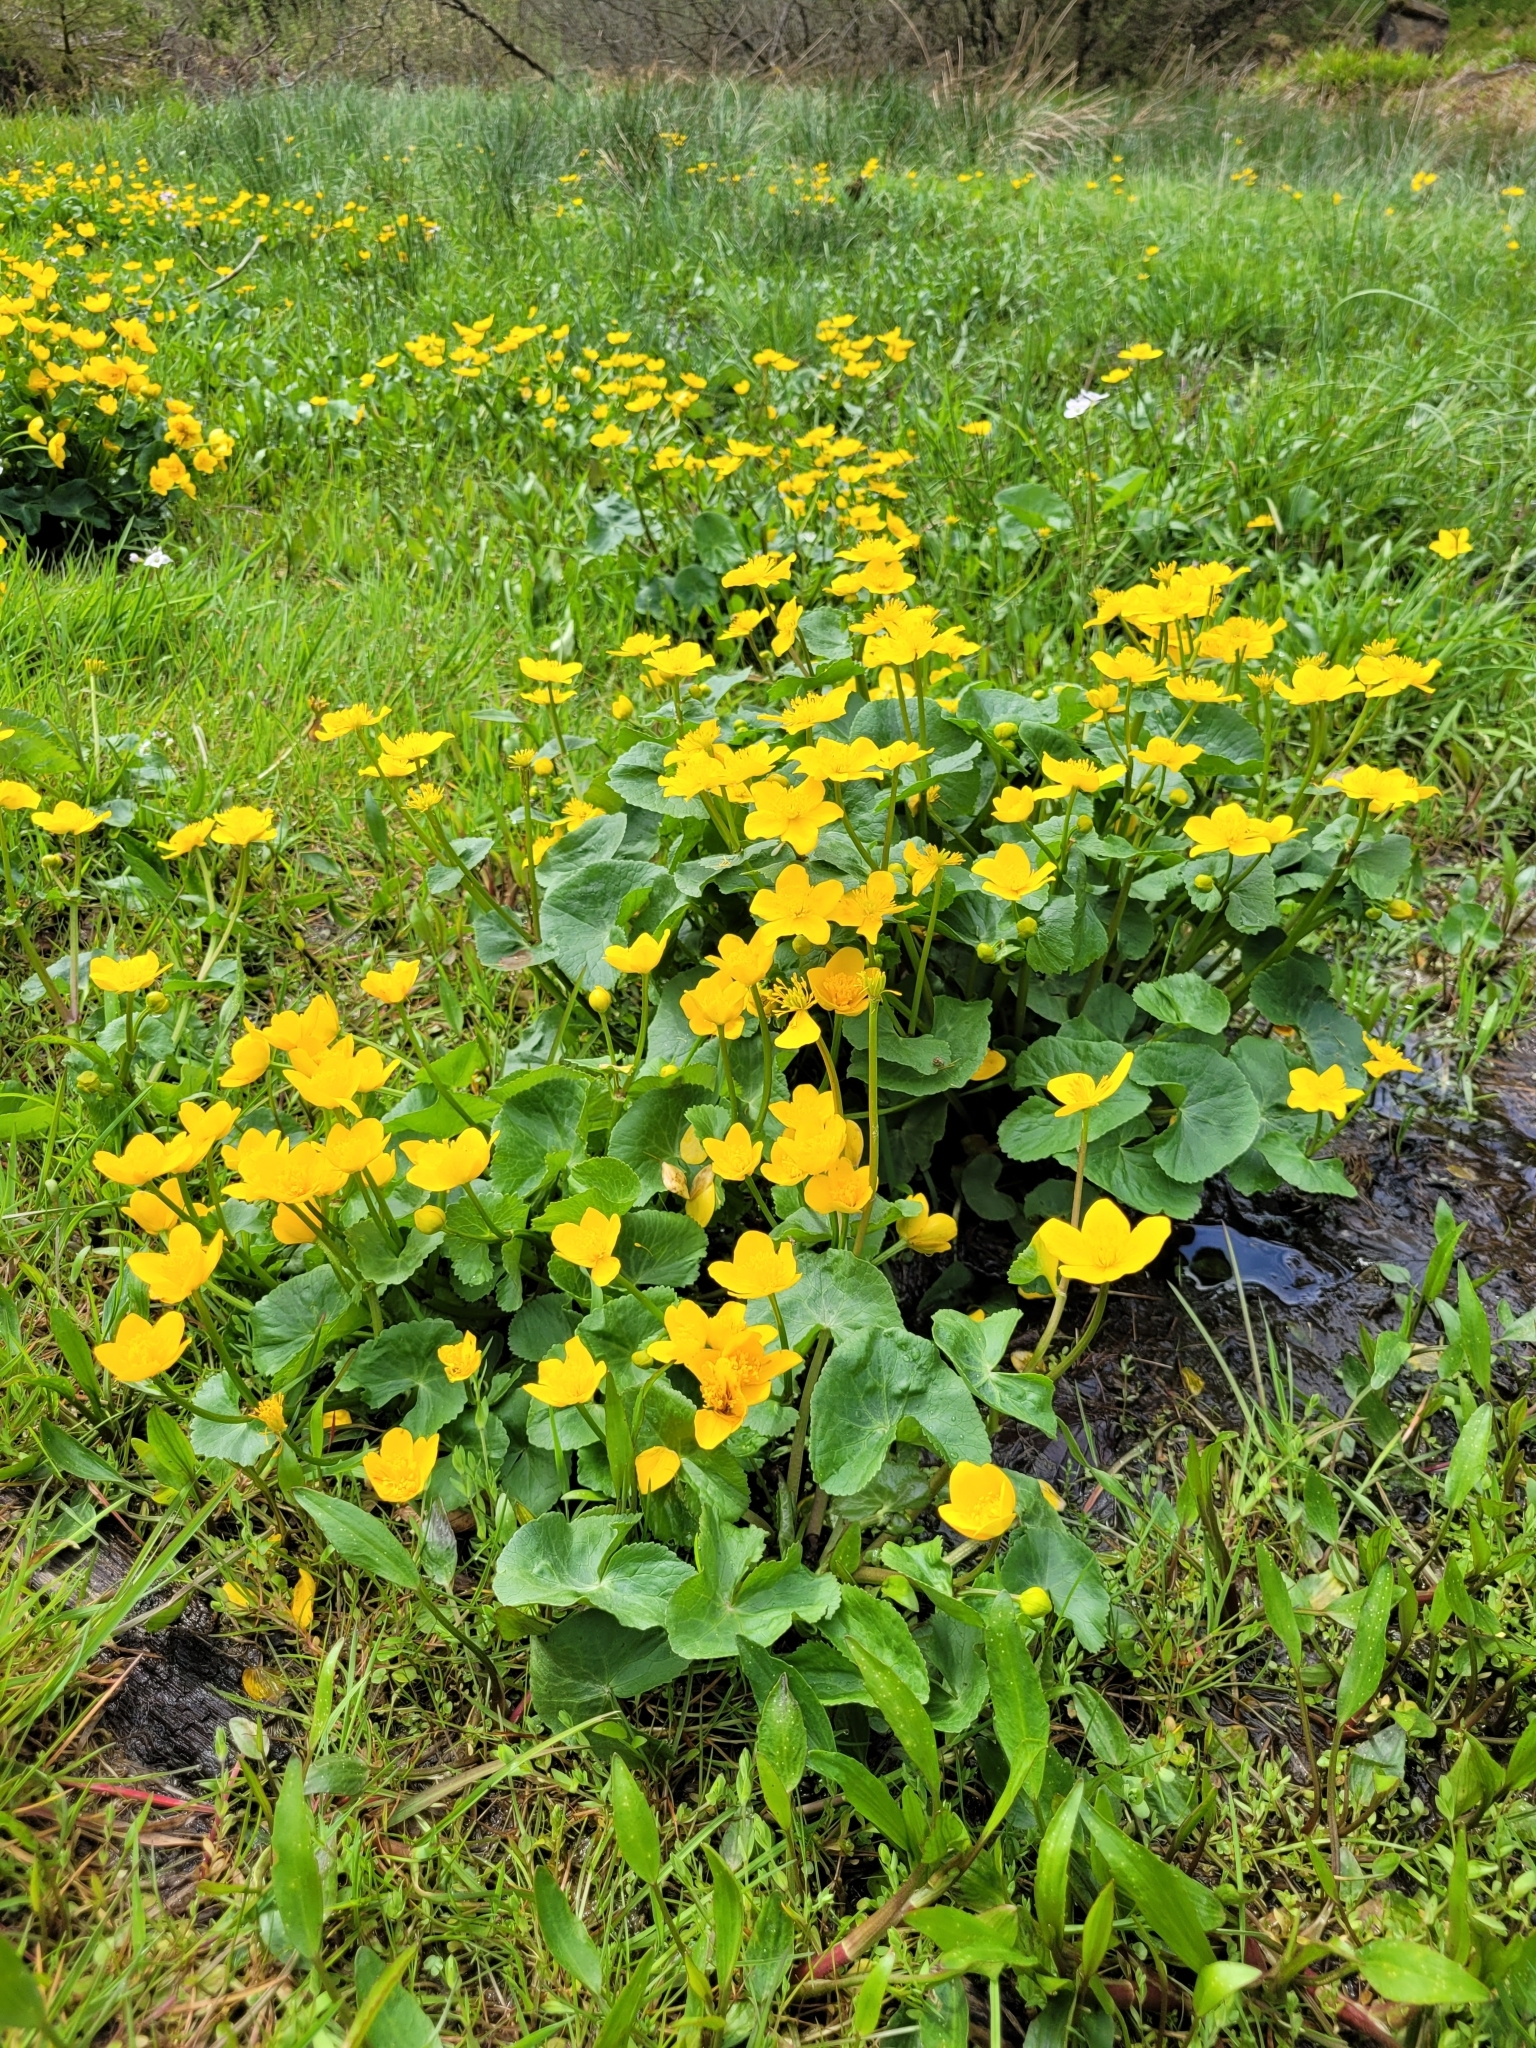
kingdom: Plantae
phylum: Tracheophyta
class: Magnoliopsida
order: Ranunculales
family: Ranunculaceae
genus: Caltha
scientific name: Caltha palustris
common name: Marsh marigold
